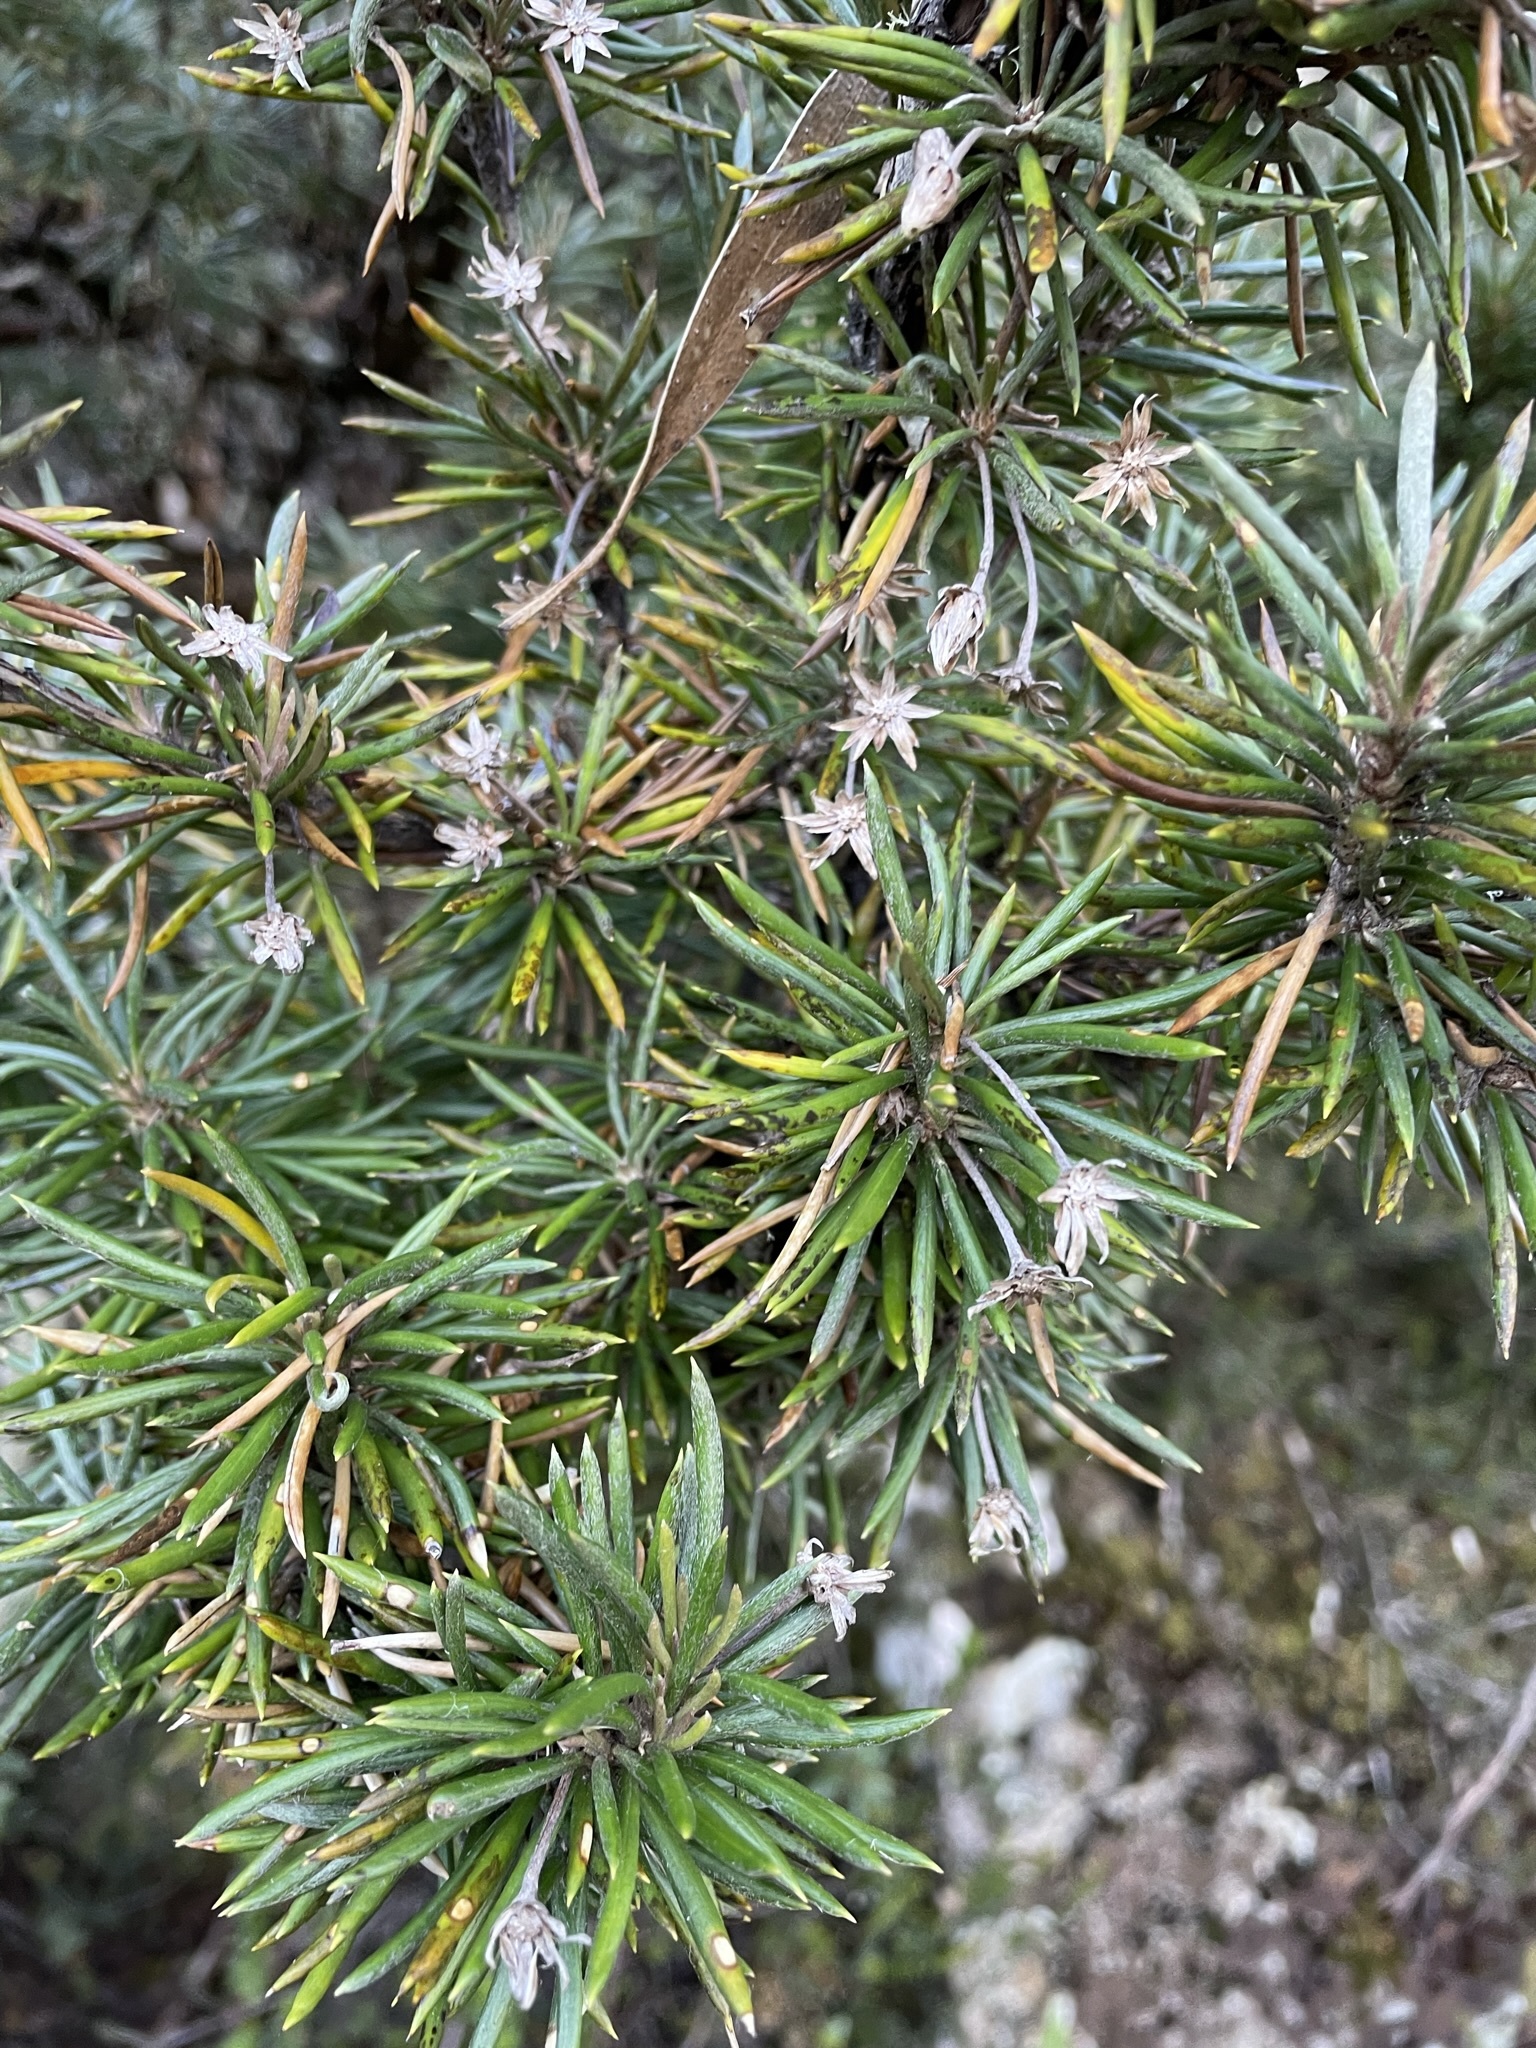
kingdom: Plantae
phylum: Tracheophyta
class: Magnoliopsida
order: Asterales
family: Asteraceae
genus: Olearia
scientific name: Olearia pinifolia
